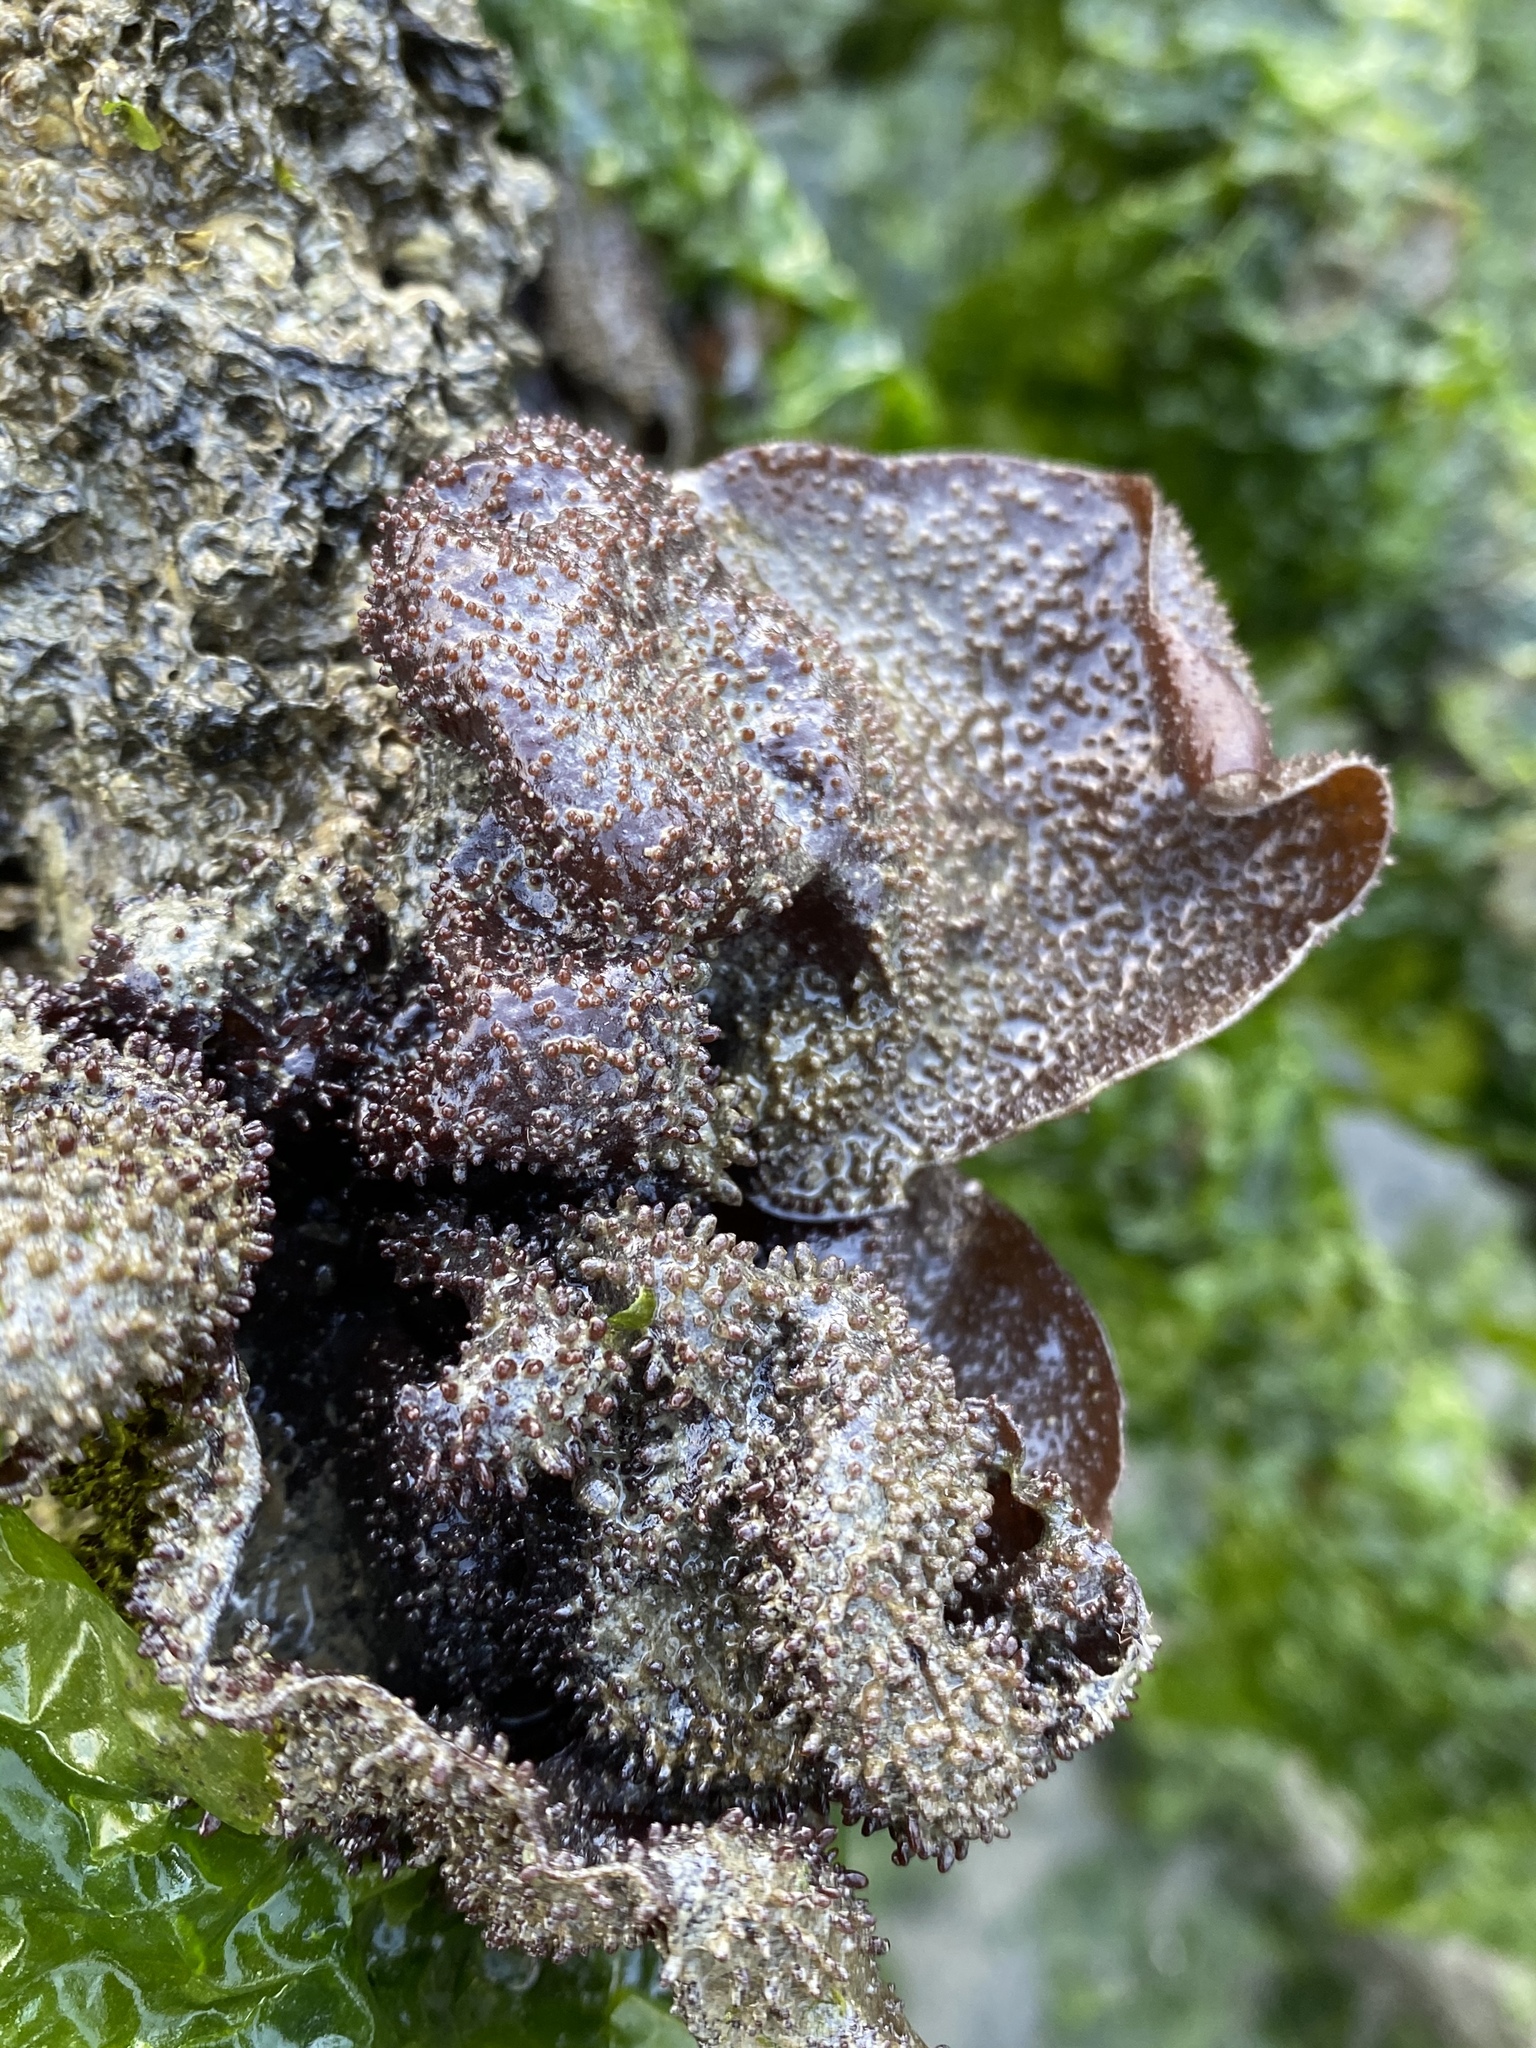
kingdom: Plantae
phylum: Rhodophyta
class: Florideophyceae
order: Gigartinales
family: Phyllophoraceae
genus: Mastocarpus
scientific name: Mastocarpus papillatus
